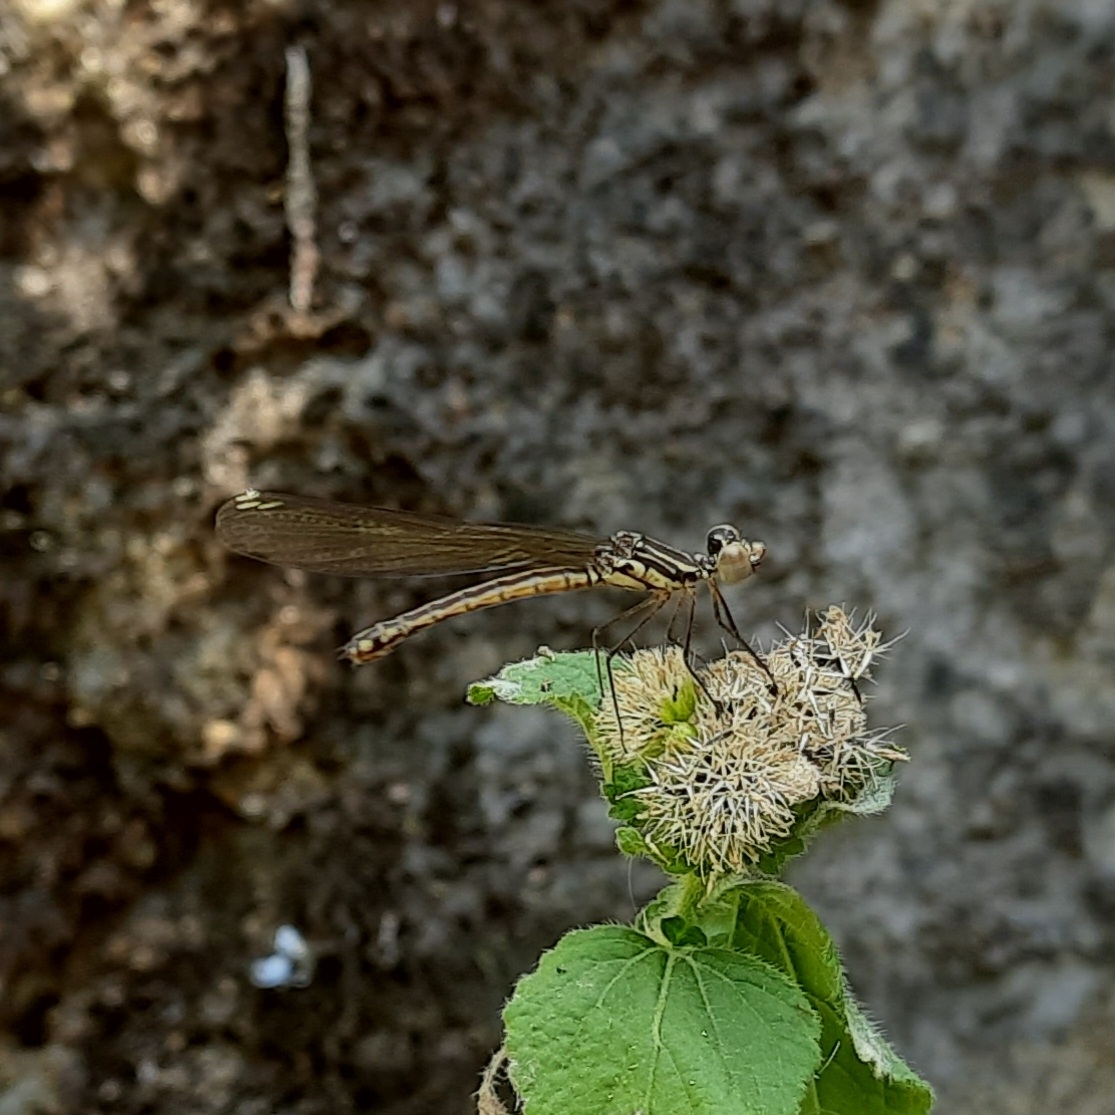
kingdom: Animalia
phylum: Arthropoda
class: Insecta
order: Odonata
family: Chlorocyphidae
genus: Libellago
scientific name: Libellago indica
